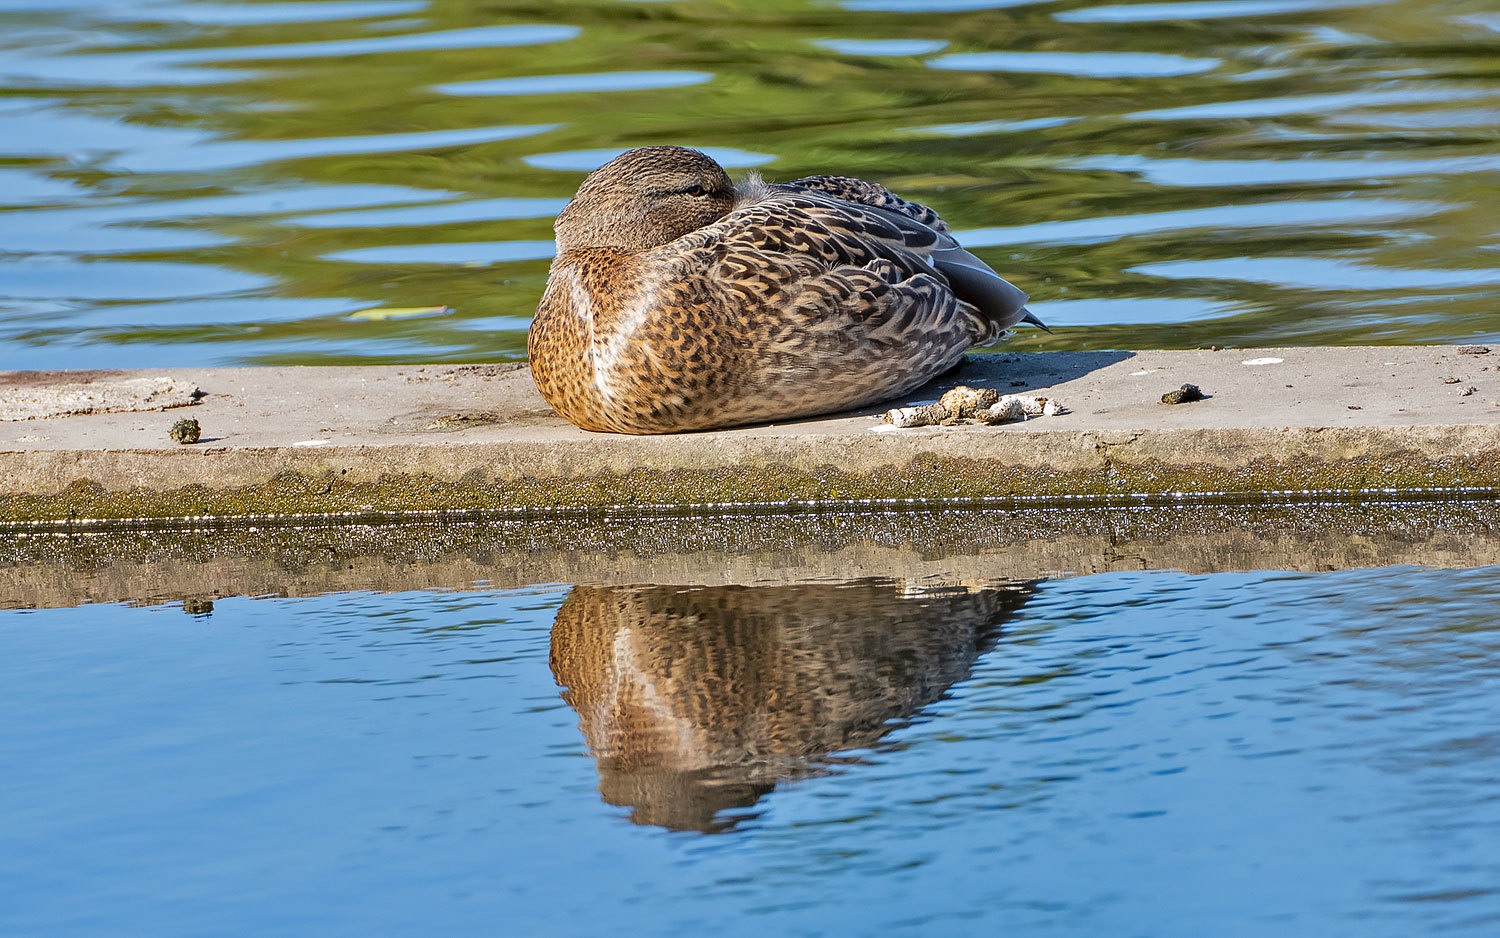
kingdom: Animalia
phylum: Chordata
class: Aves
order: Anseriformes
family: Anatidae
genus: Anas
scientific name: Anas platyrhynchos
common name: Mallard
